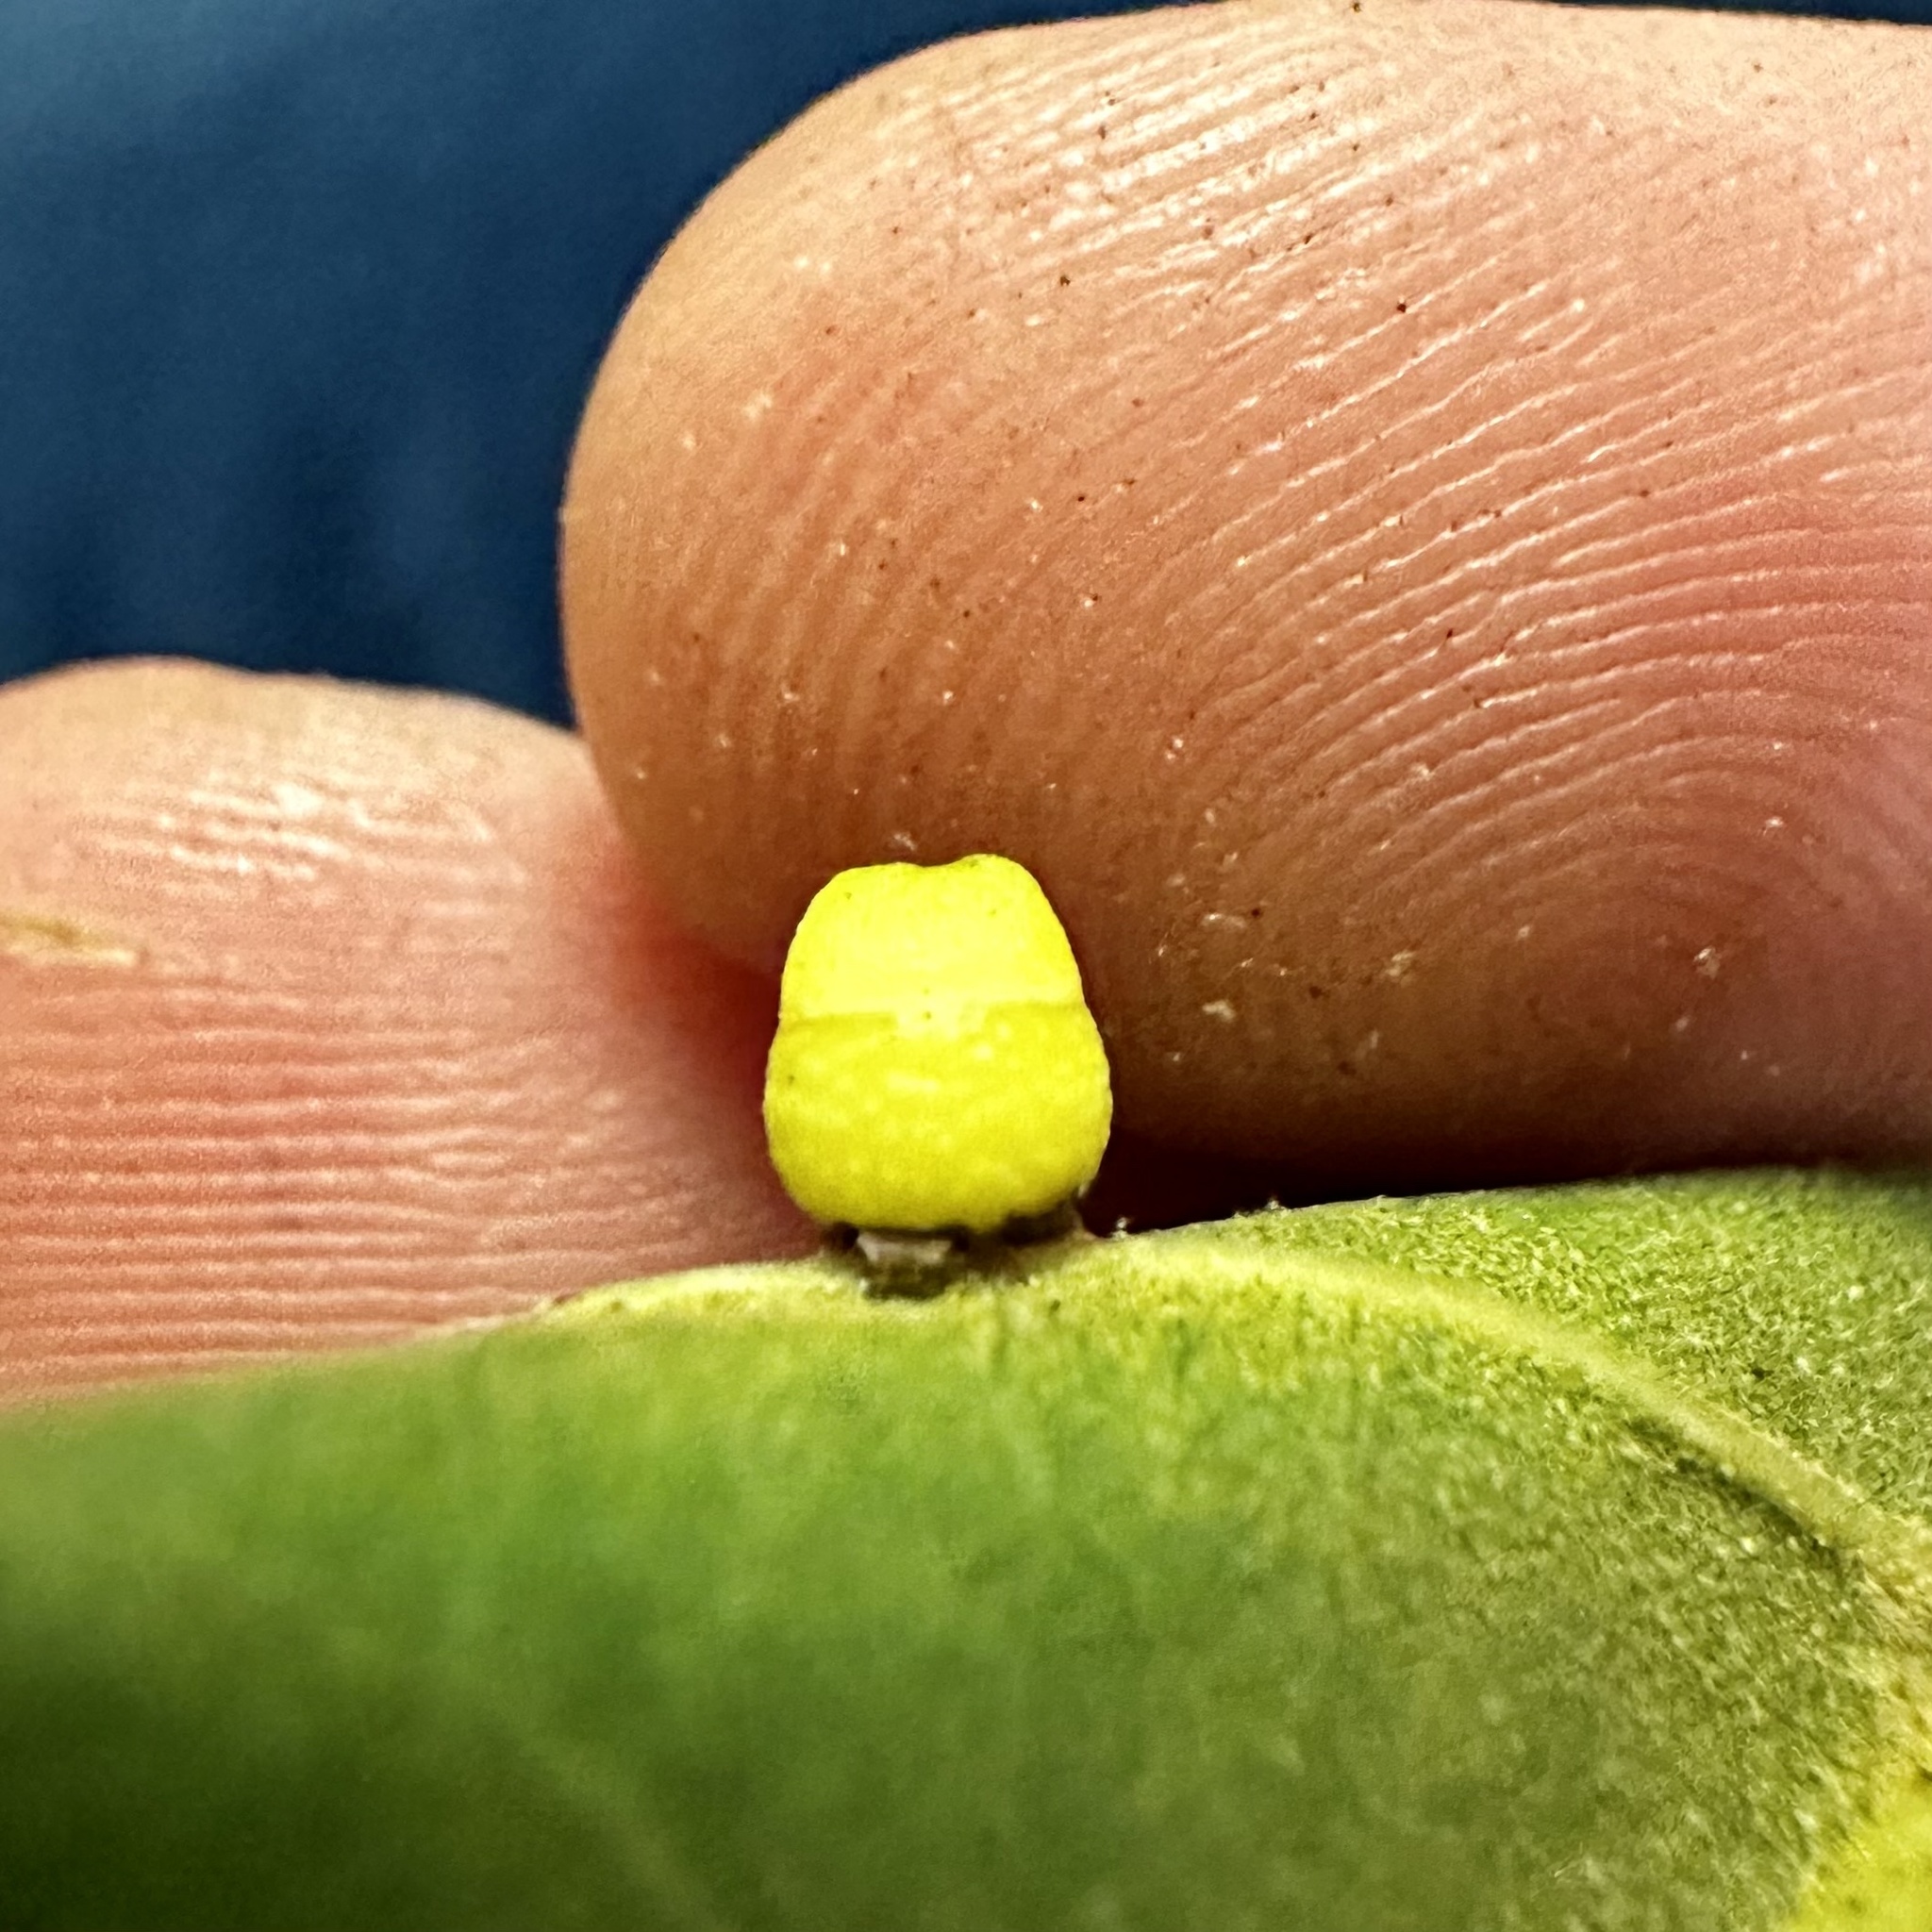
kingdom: Animalia
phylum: Arthropoda
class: Insecta
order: Hymenoptera
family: Cynipidae
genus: Kokkocynips
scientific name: Kokkocynips rileyi
